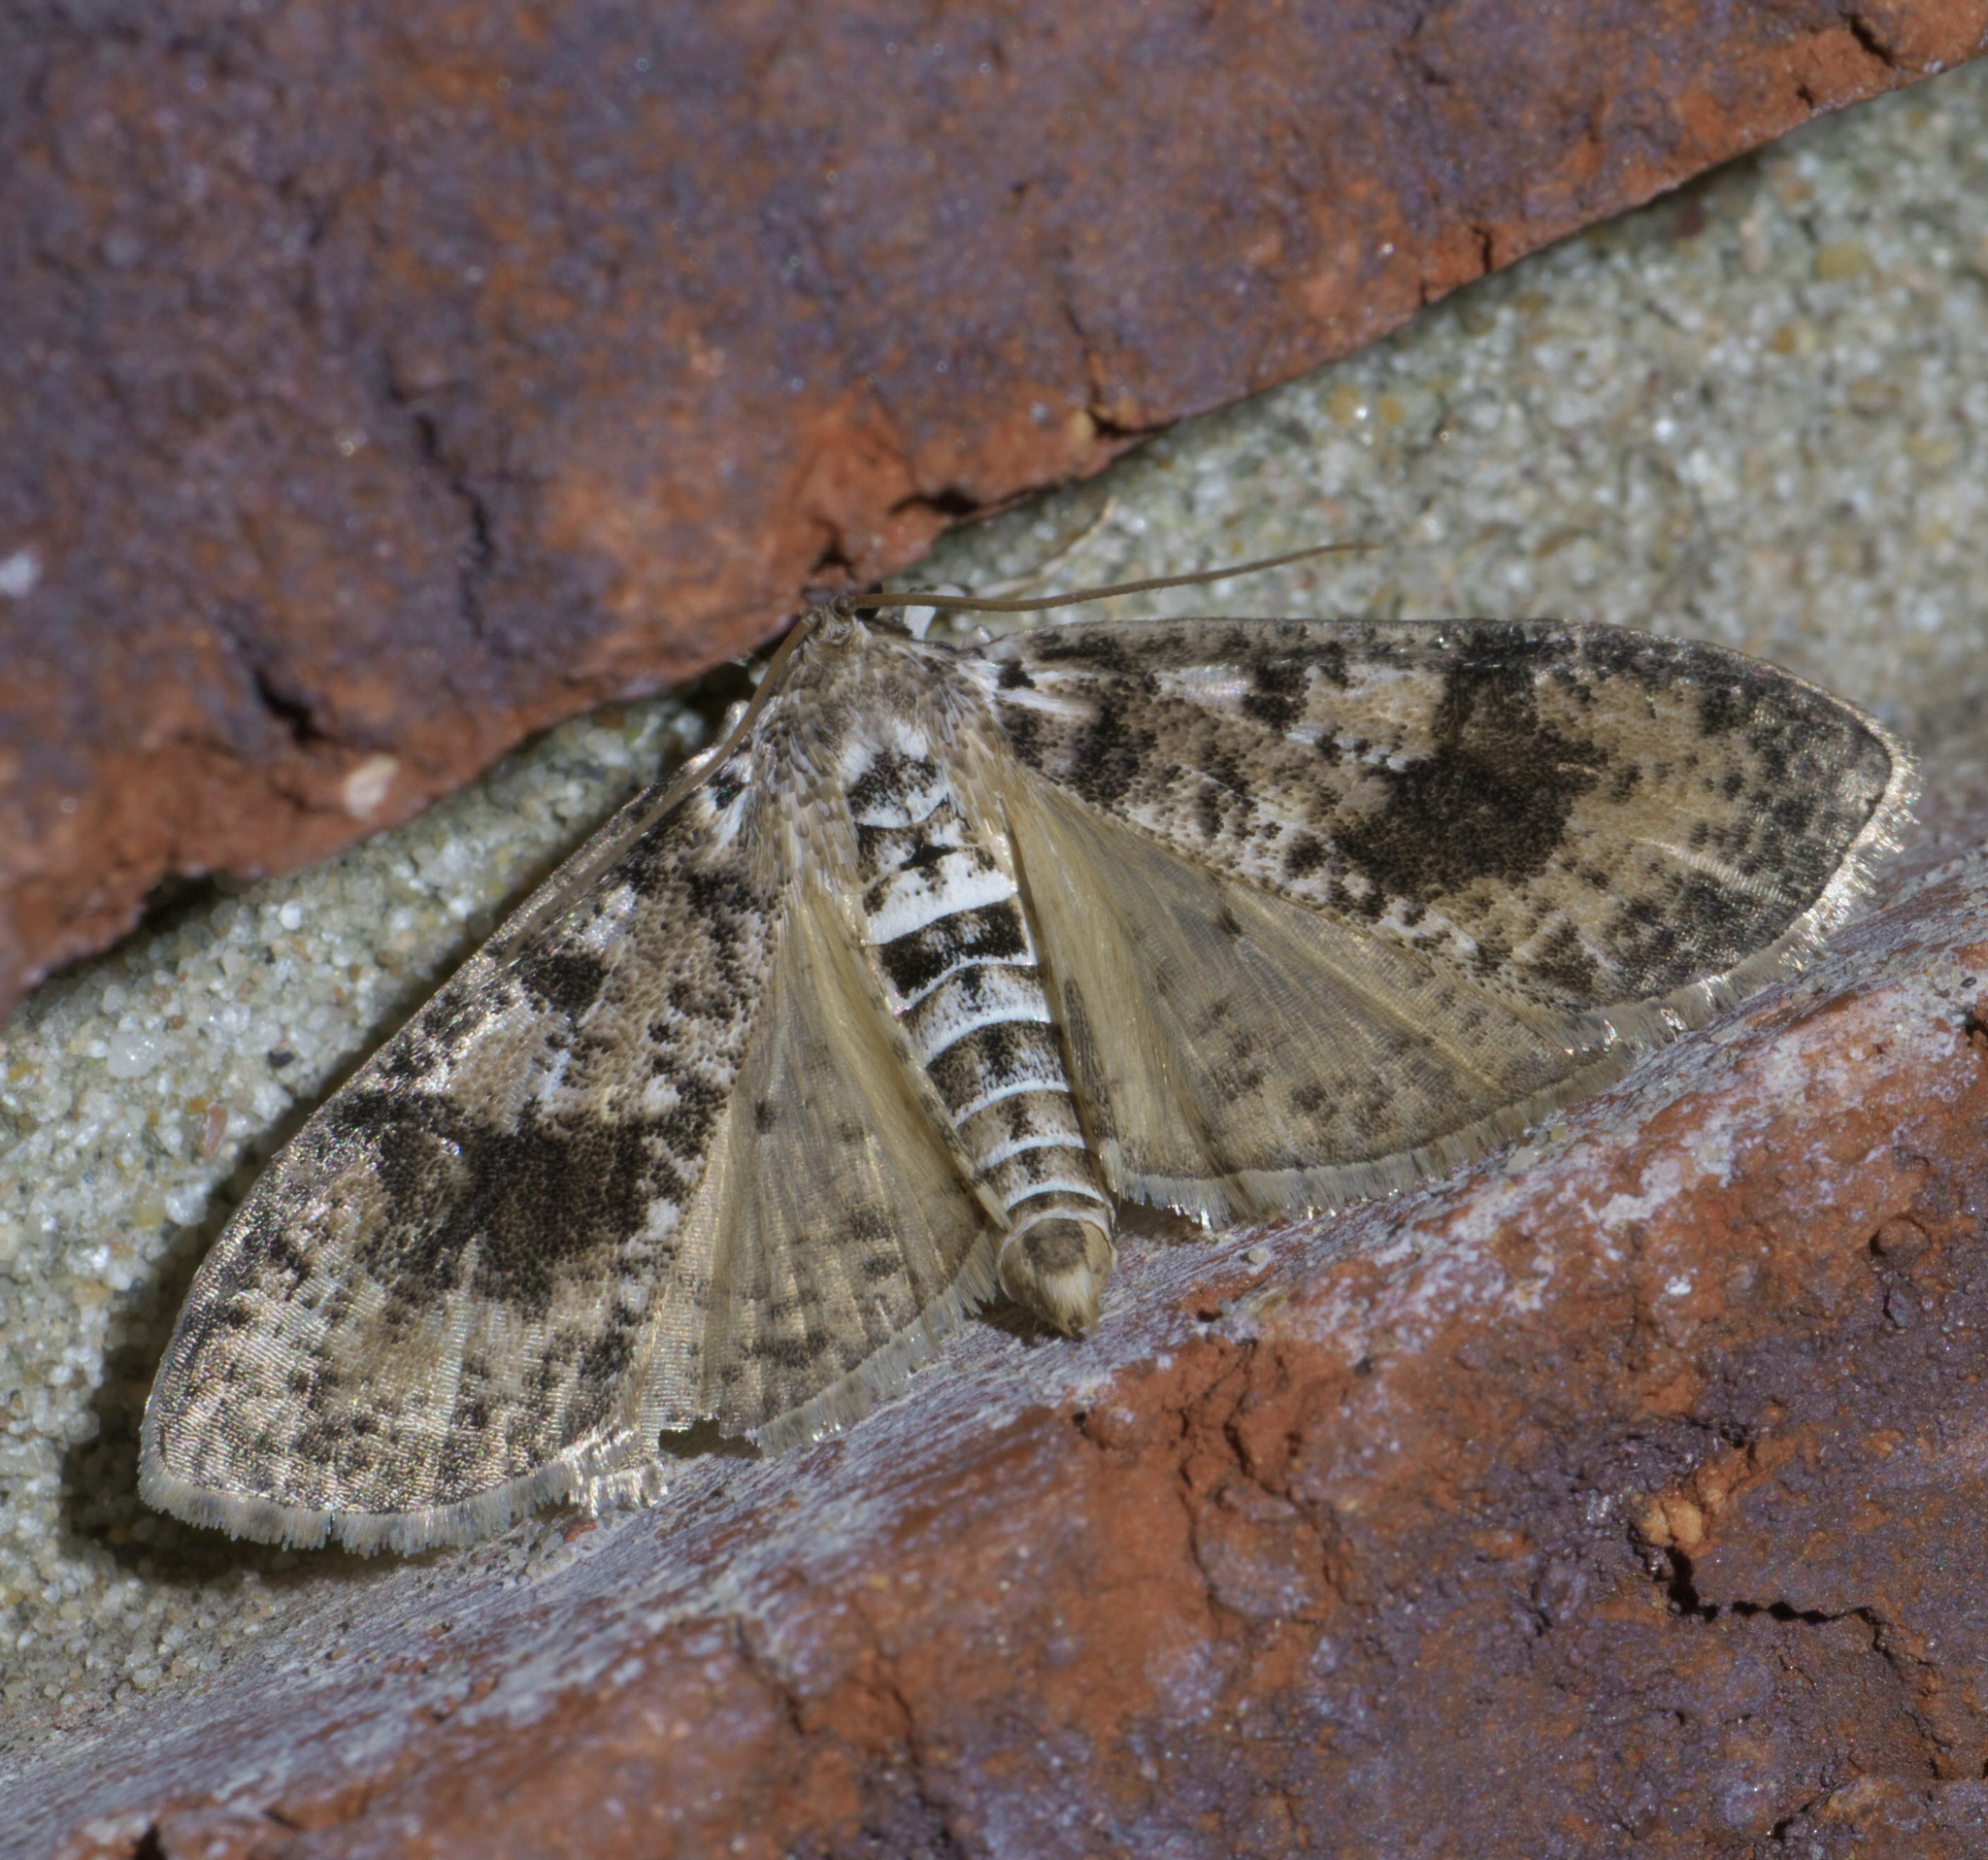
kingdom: Animalia
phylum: Arthropoda
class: Insecta
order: Lepidoptera
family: Crambidae
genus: Palpita
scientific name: Palpita magniferalis
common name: Splendid palpita moth
